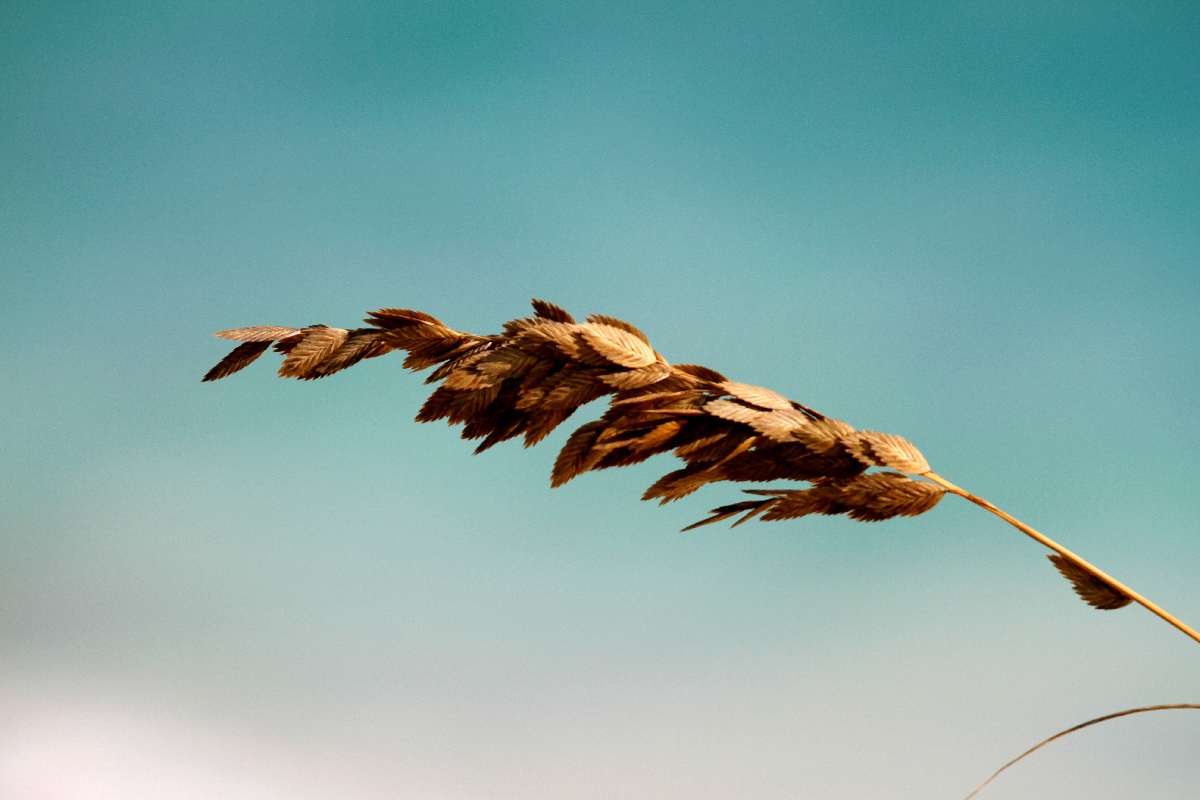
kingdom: Plantae
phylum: Tracheophyta
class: Liliopsida
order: Poales
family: Poaceae
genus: Uniola
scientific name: Uniola paniculata
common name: Seaside-oats
